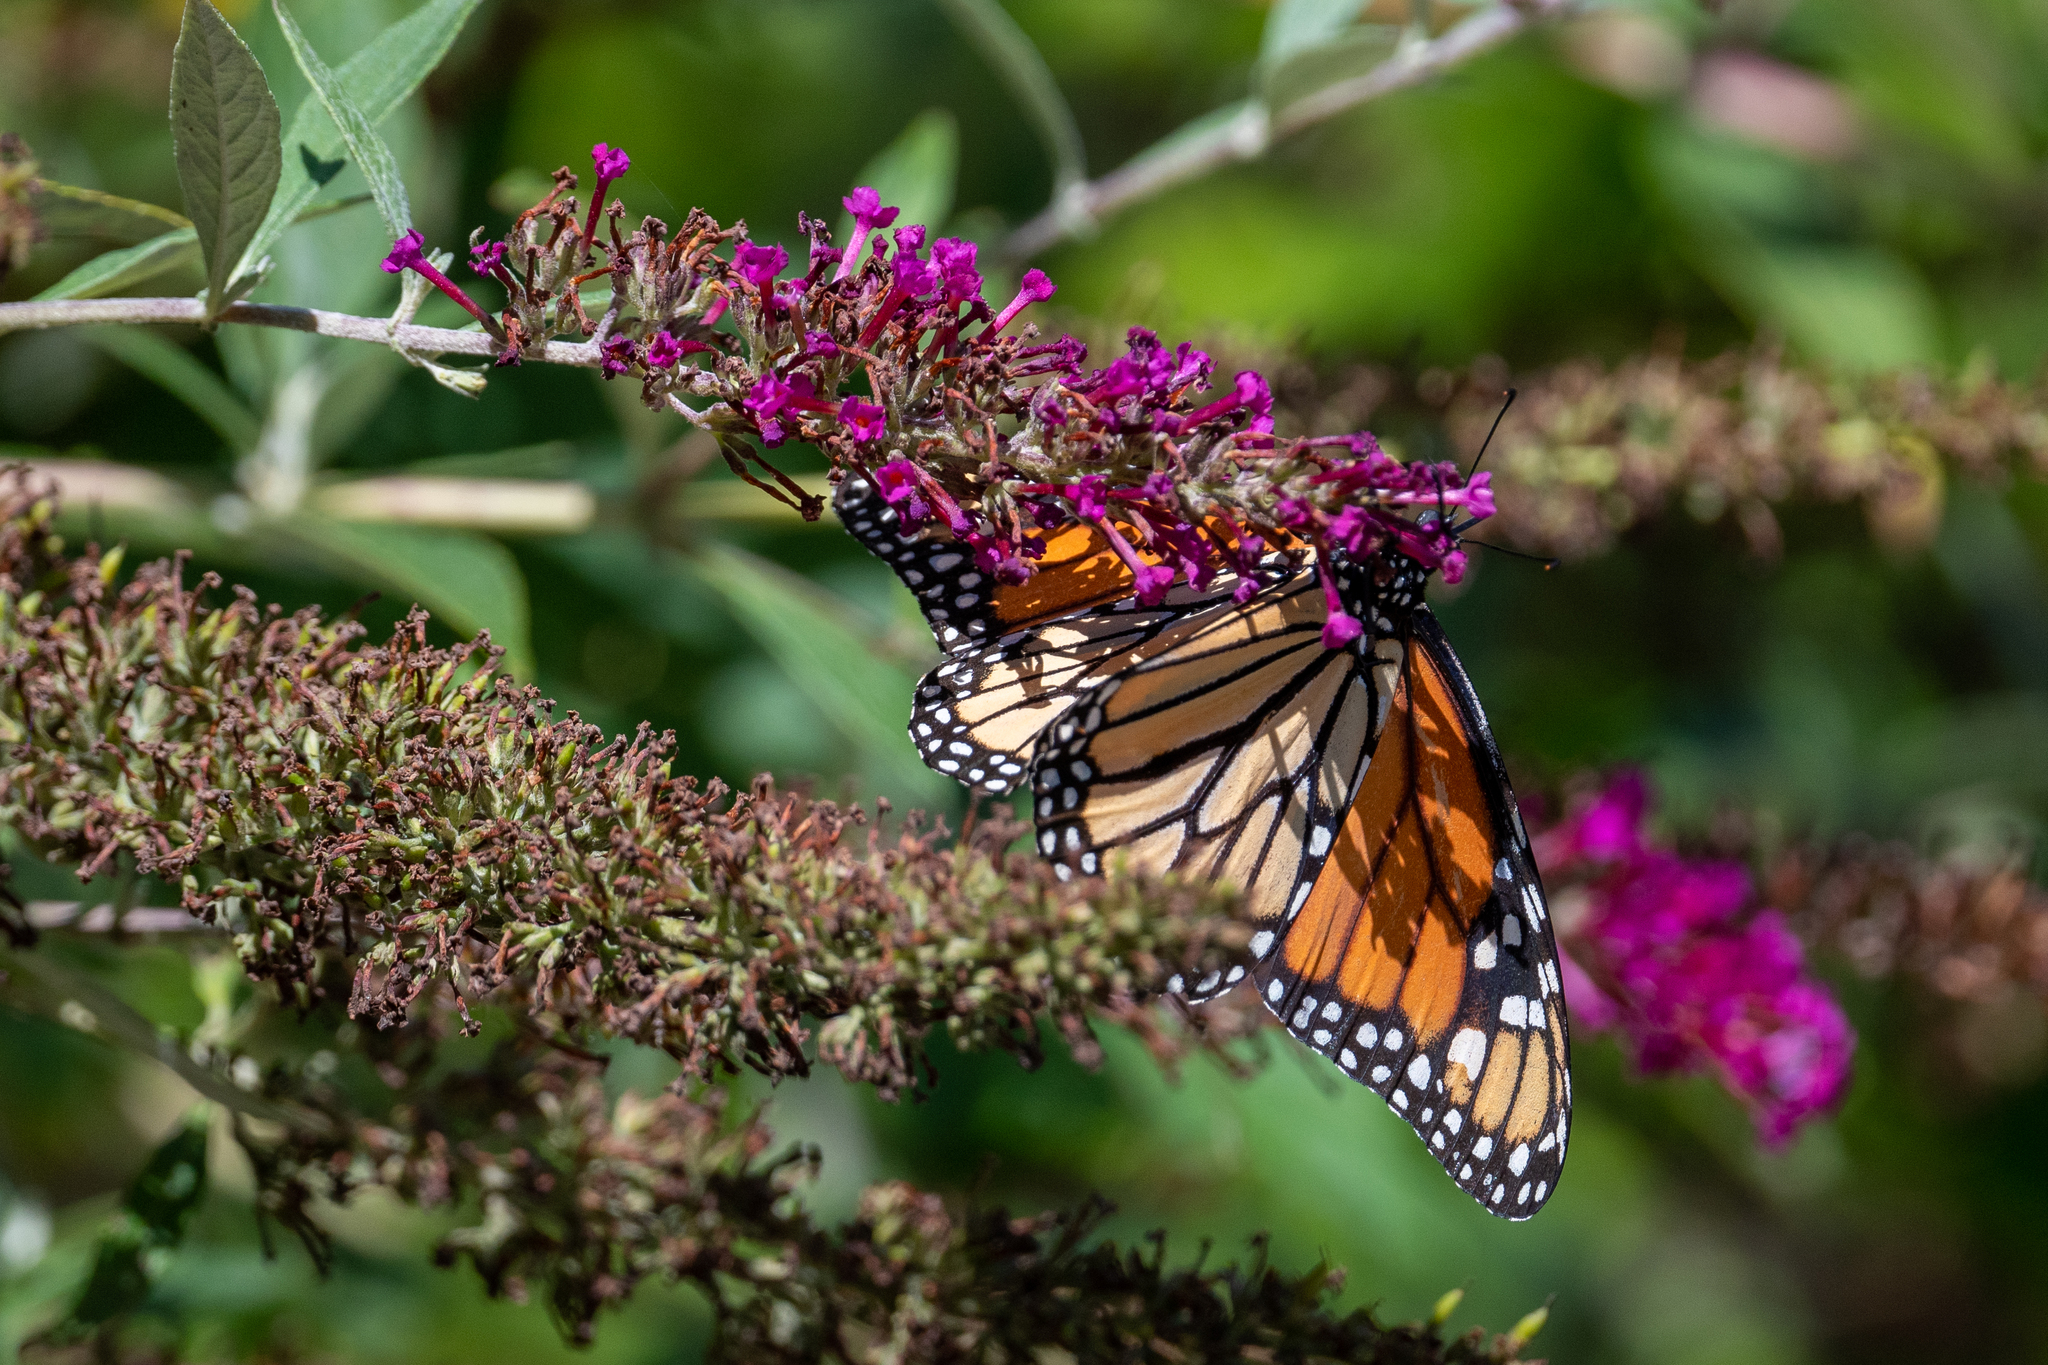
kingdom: Animalia
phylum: Arthropoda
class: Insecta
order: Lepidoptera
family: Nymphalidae
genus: Danaus
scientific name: Danaus plexippus
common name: Monarch
